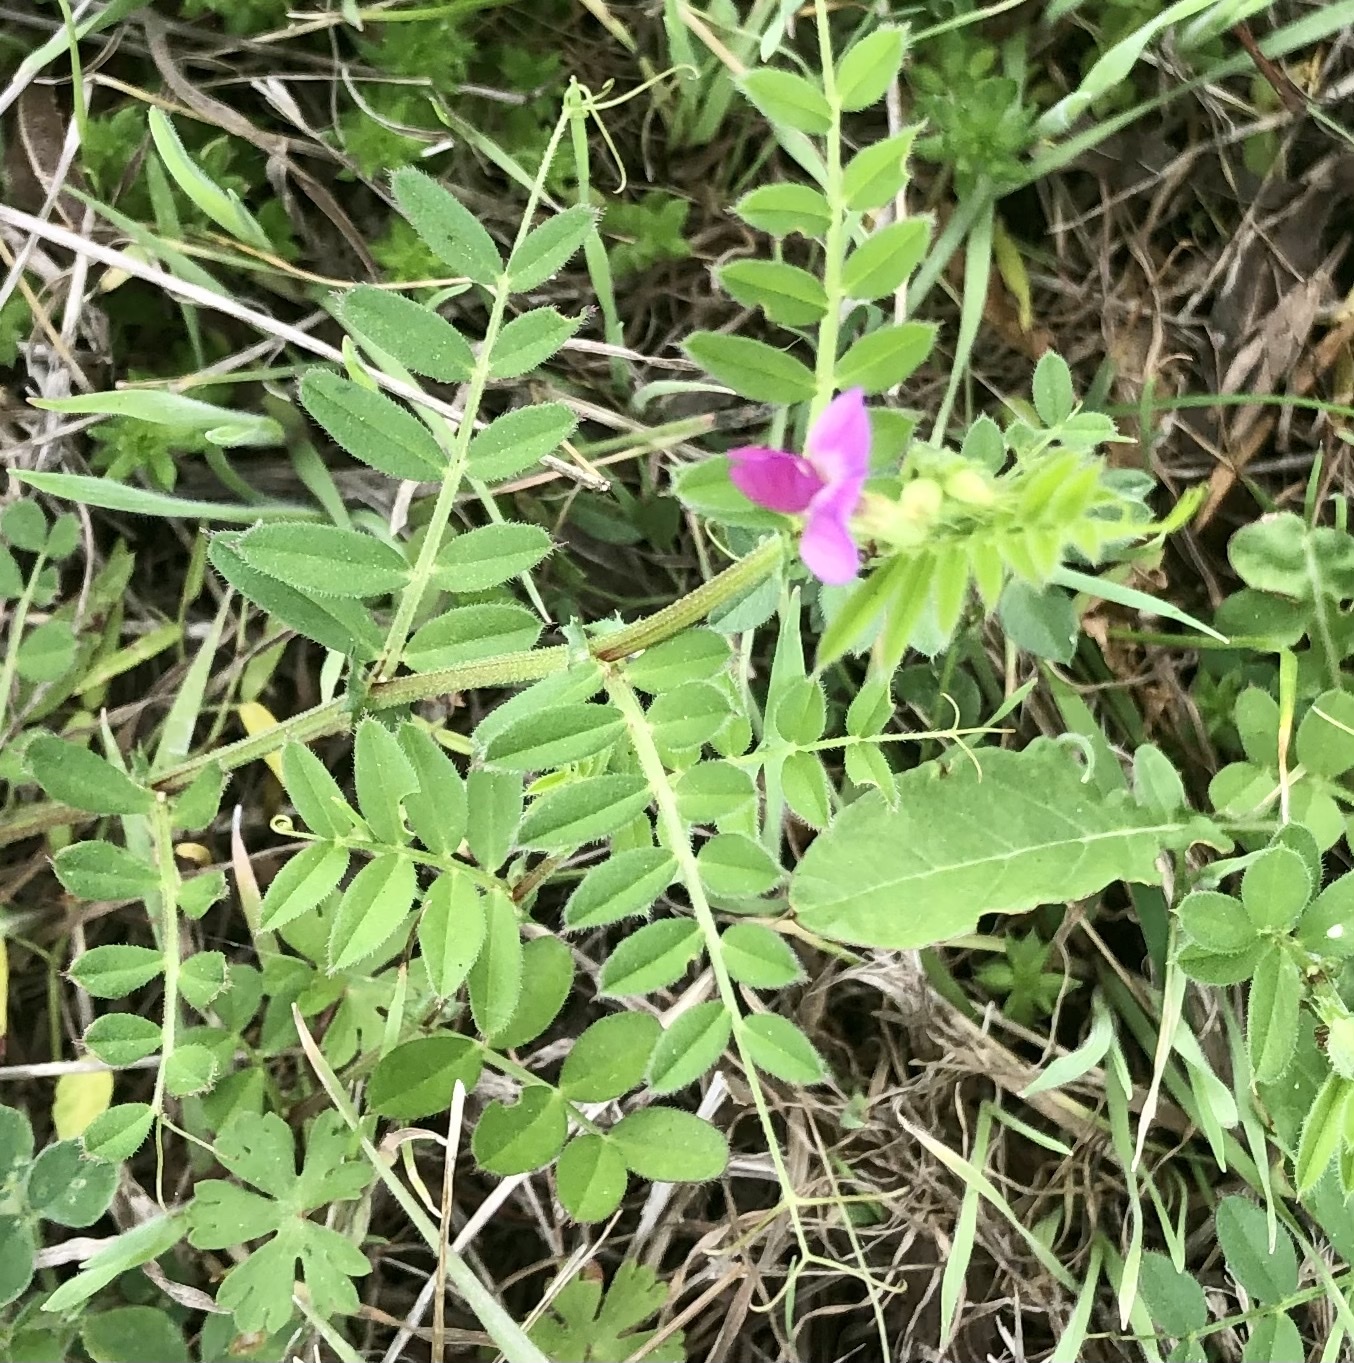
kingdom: Plantae
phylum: Tracheophyta
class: Magnoliopsida
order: Fabales
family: Fabaceae
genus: Vicia
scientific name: Vicia sativa
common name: Garden vetch
